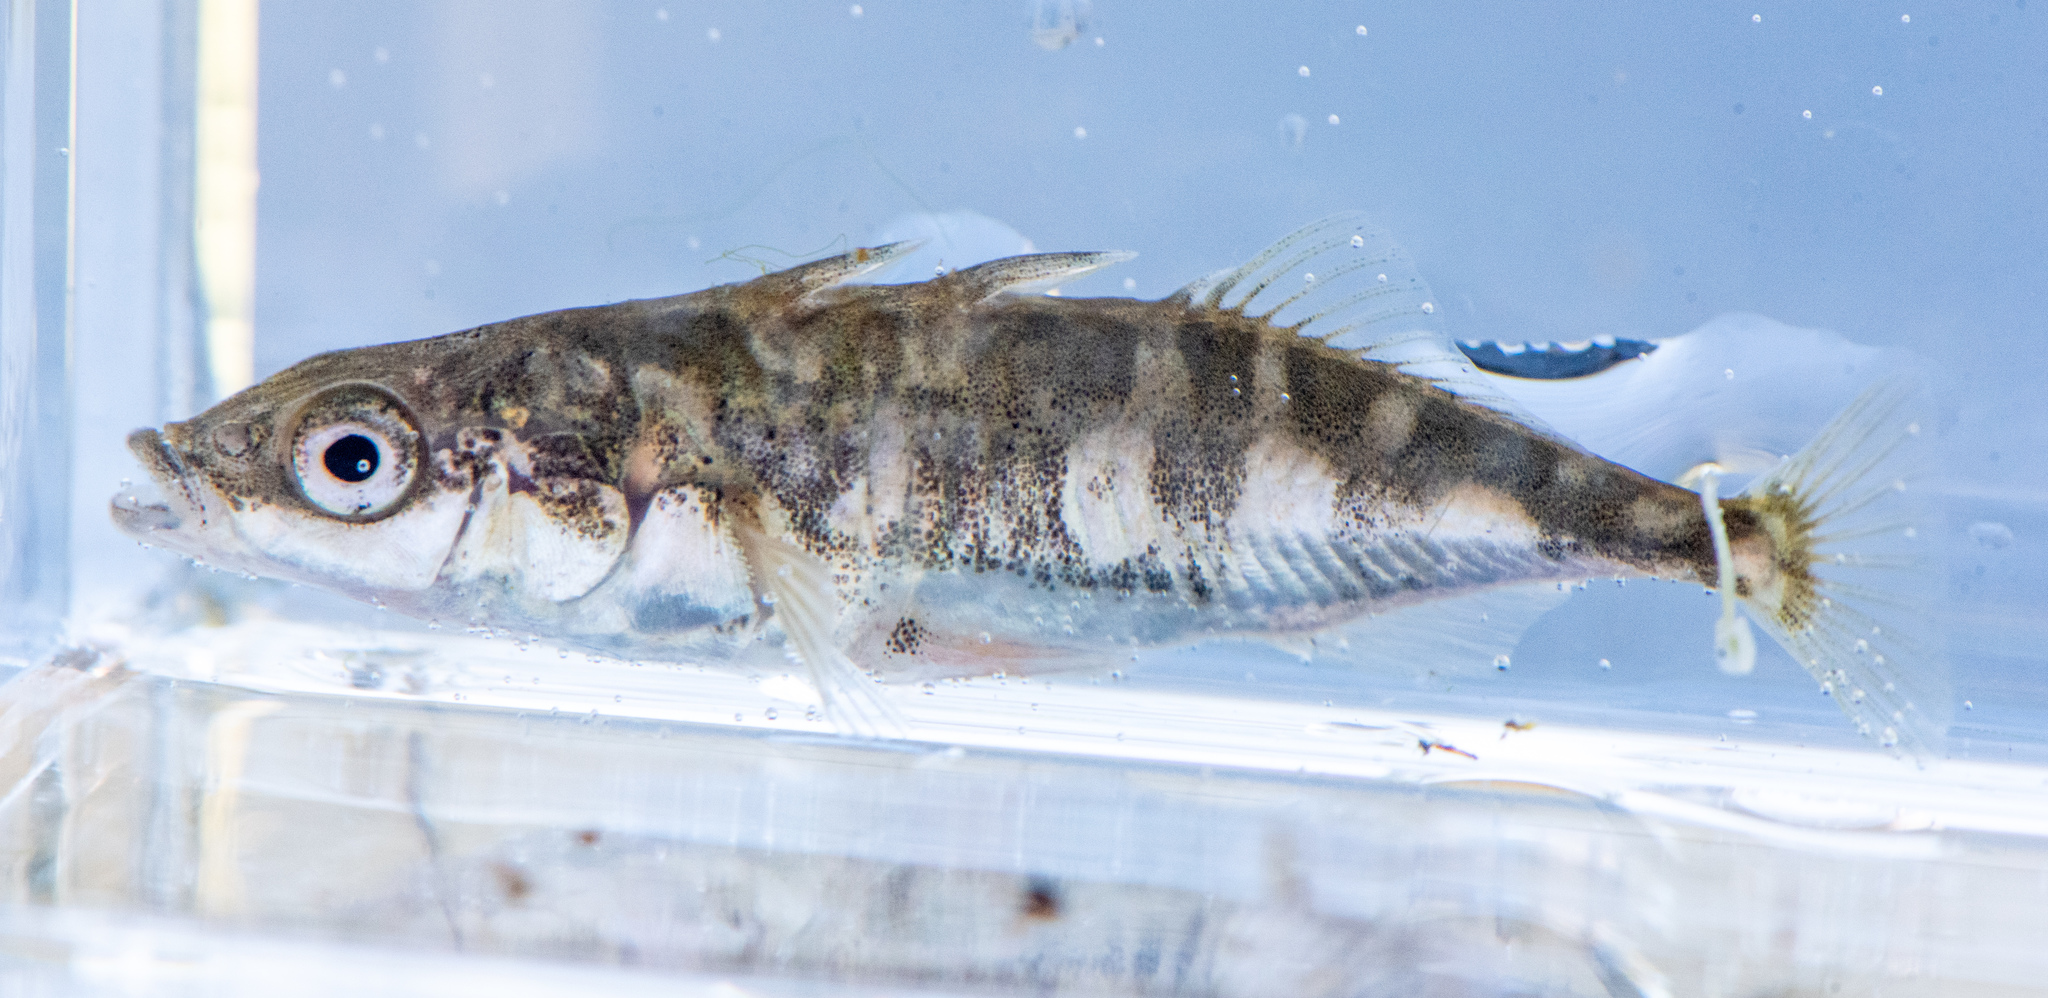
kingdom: Animalia
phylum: Chordata
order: Gasterosteiformes
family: Gasterosteidae
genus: Gasterosteus
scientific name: Gasterosteus aculeatus
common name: Three-spined stickleback
